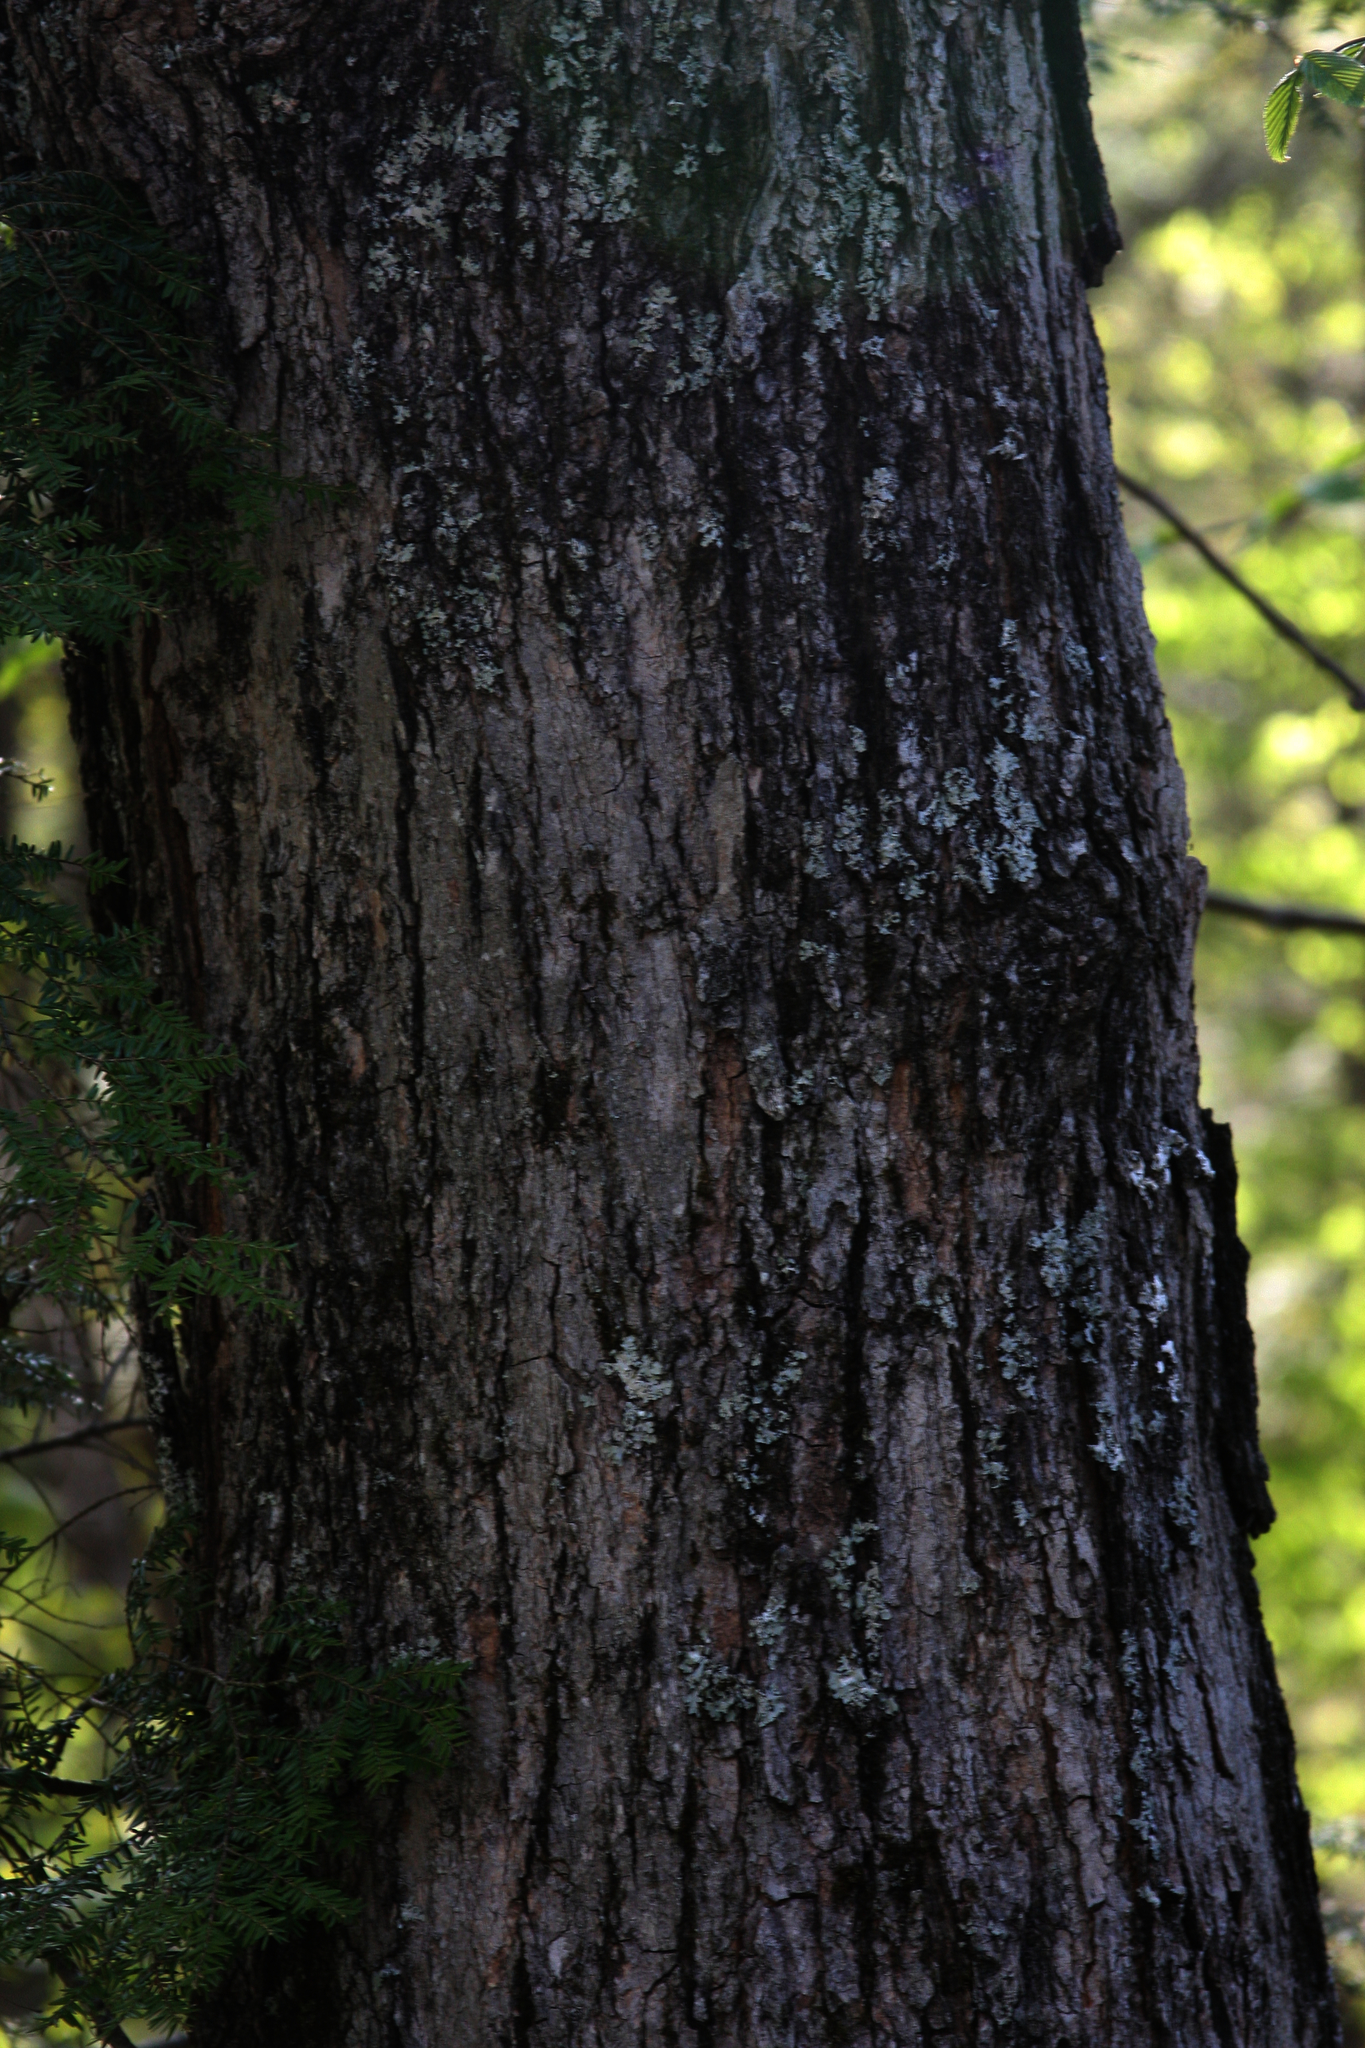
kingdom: Plantae
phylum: Tracheophyta
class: Pinopsida
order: Pinales
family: Pinaceae
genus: Tsuga
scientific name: Tsuga canadensis
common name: Eastern hemlock
